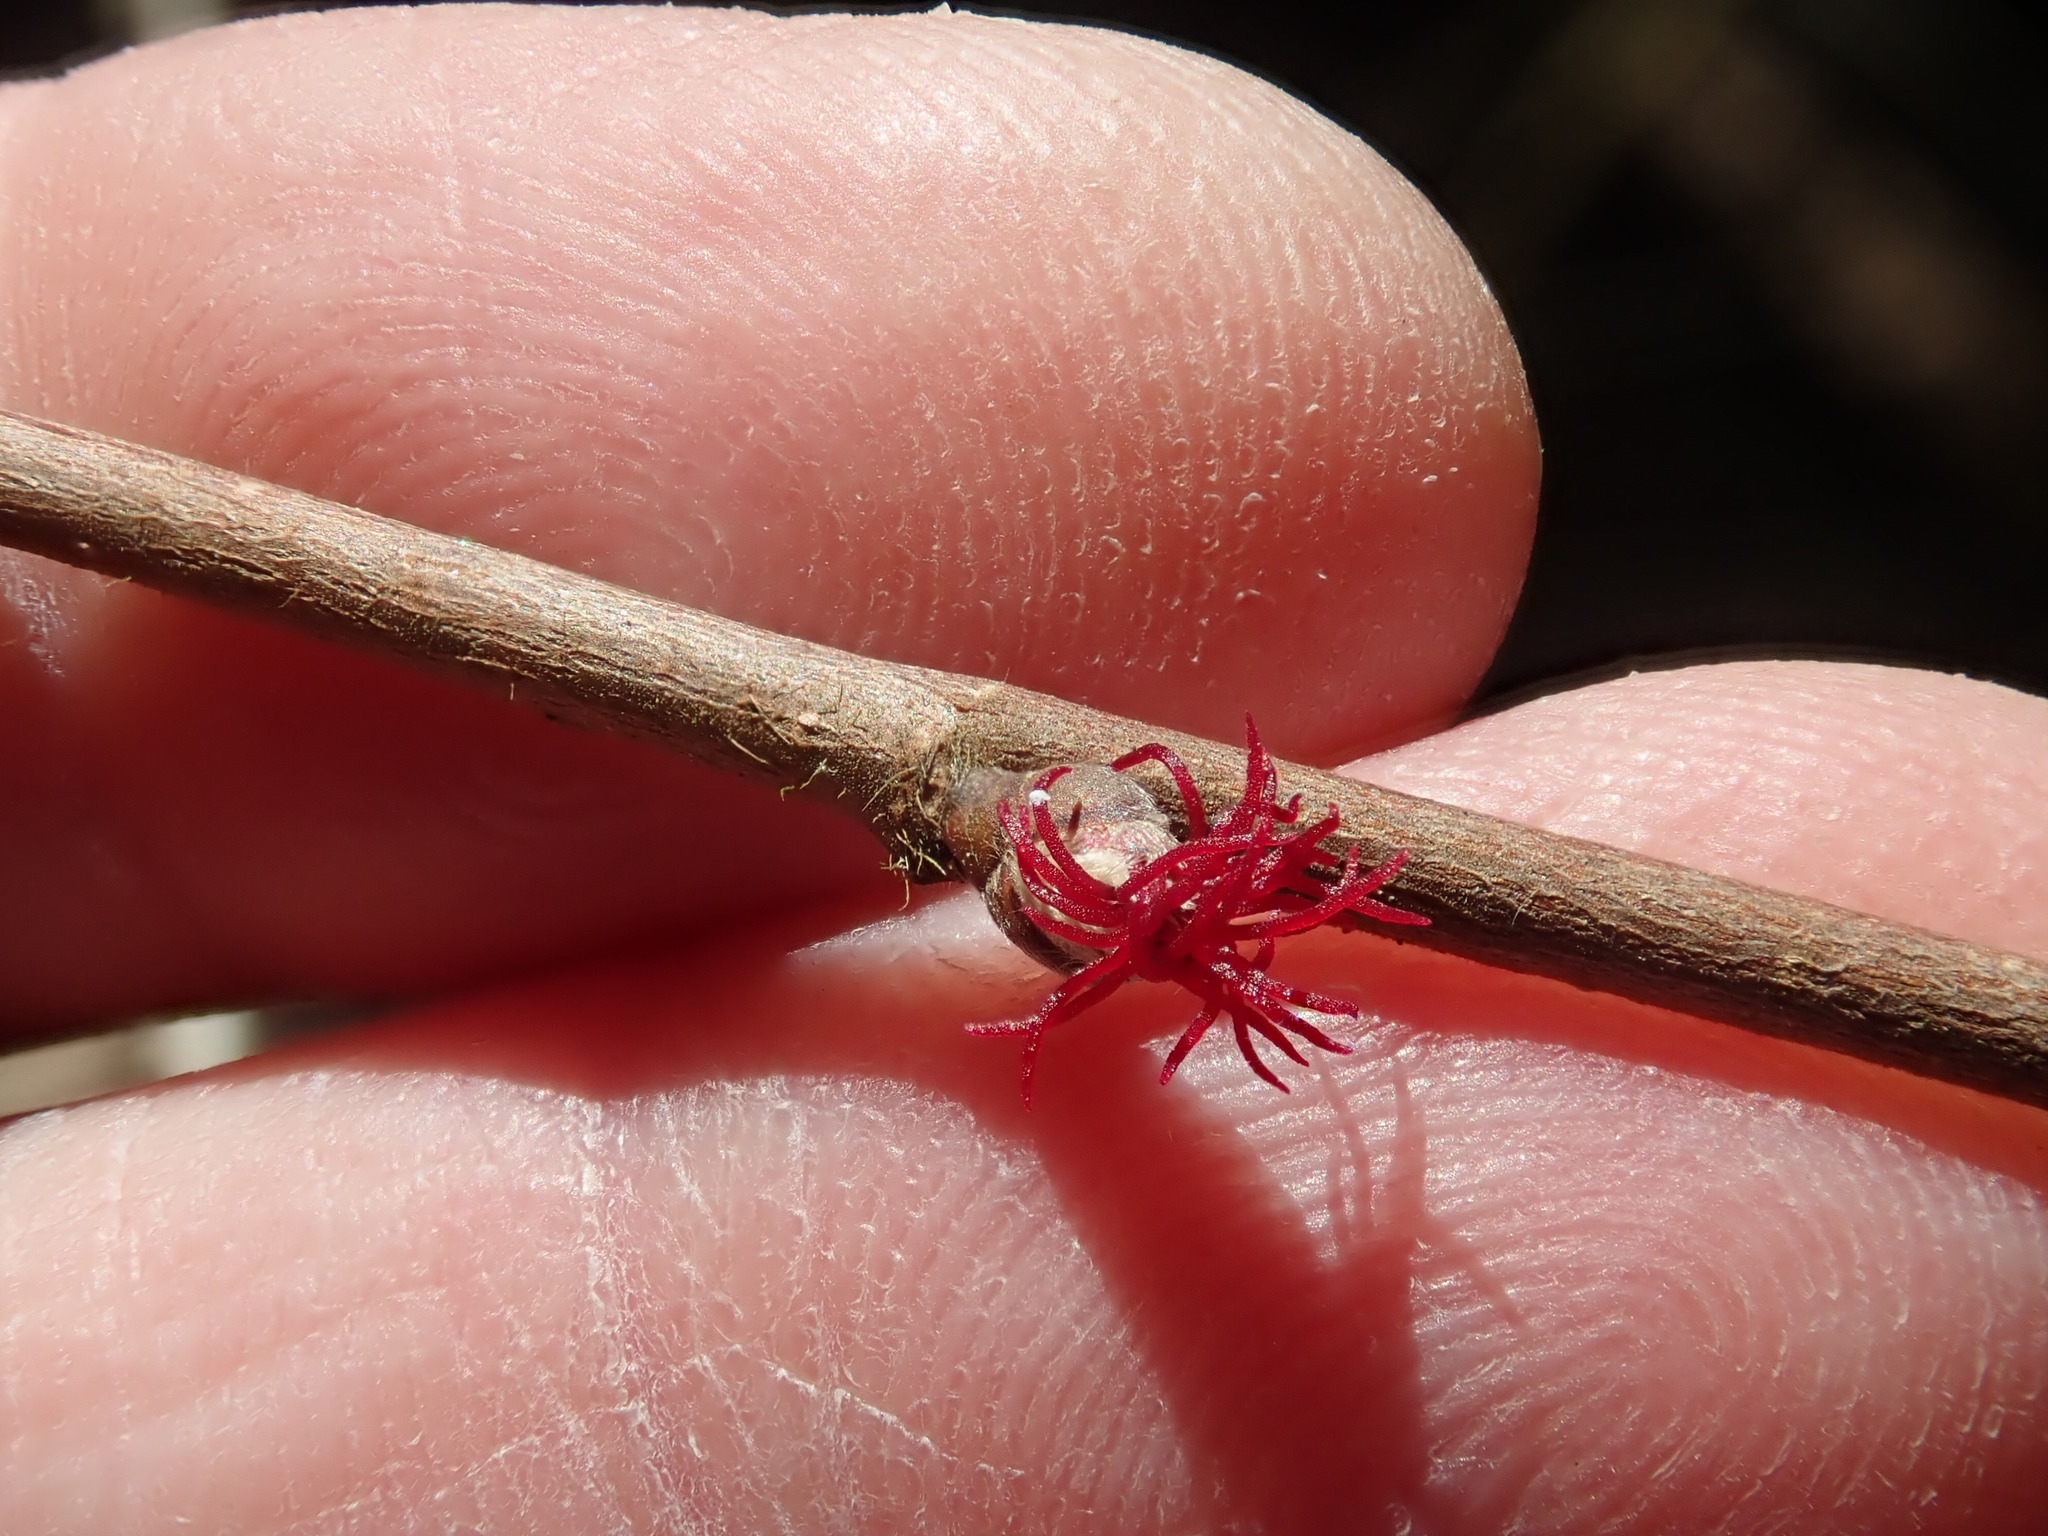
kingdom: Plantae
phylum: Tracheophyta
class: Magnoliopsida
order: Fagales
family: Betulaceae
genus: Corylus
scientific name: Corylus cornuta
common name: Beaked hazel
